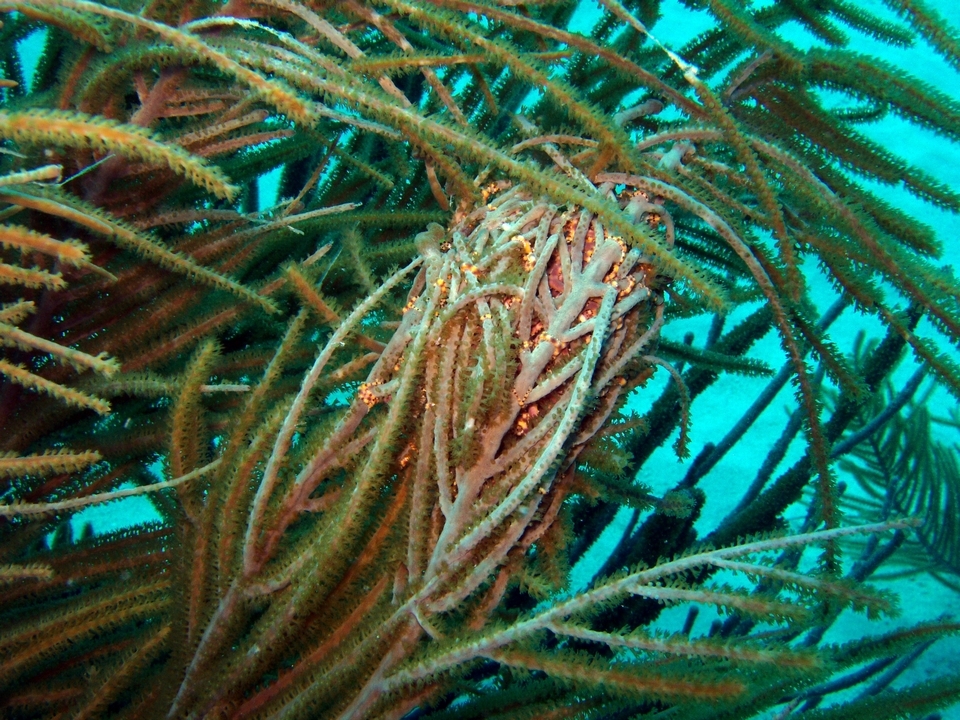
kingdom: Animalia
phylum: Echinodermata
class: Ophiuroidea
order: Euryalida
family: Gorgonocephalidae
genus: Astrophyton
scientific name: Astrophyton muricatum
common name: Basket starfish
